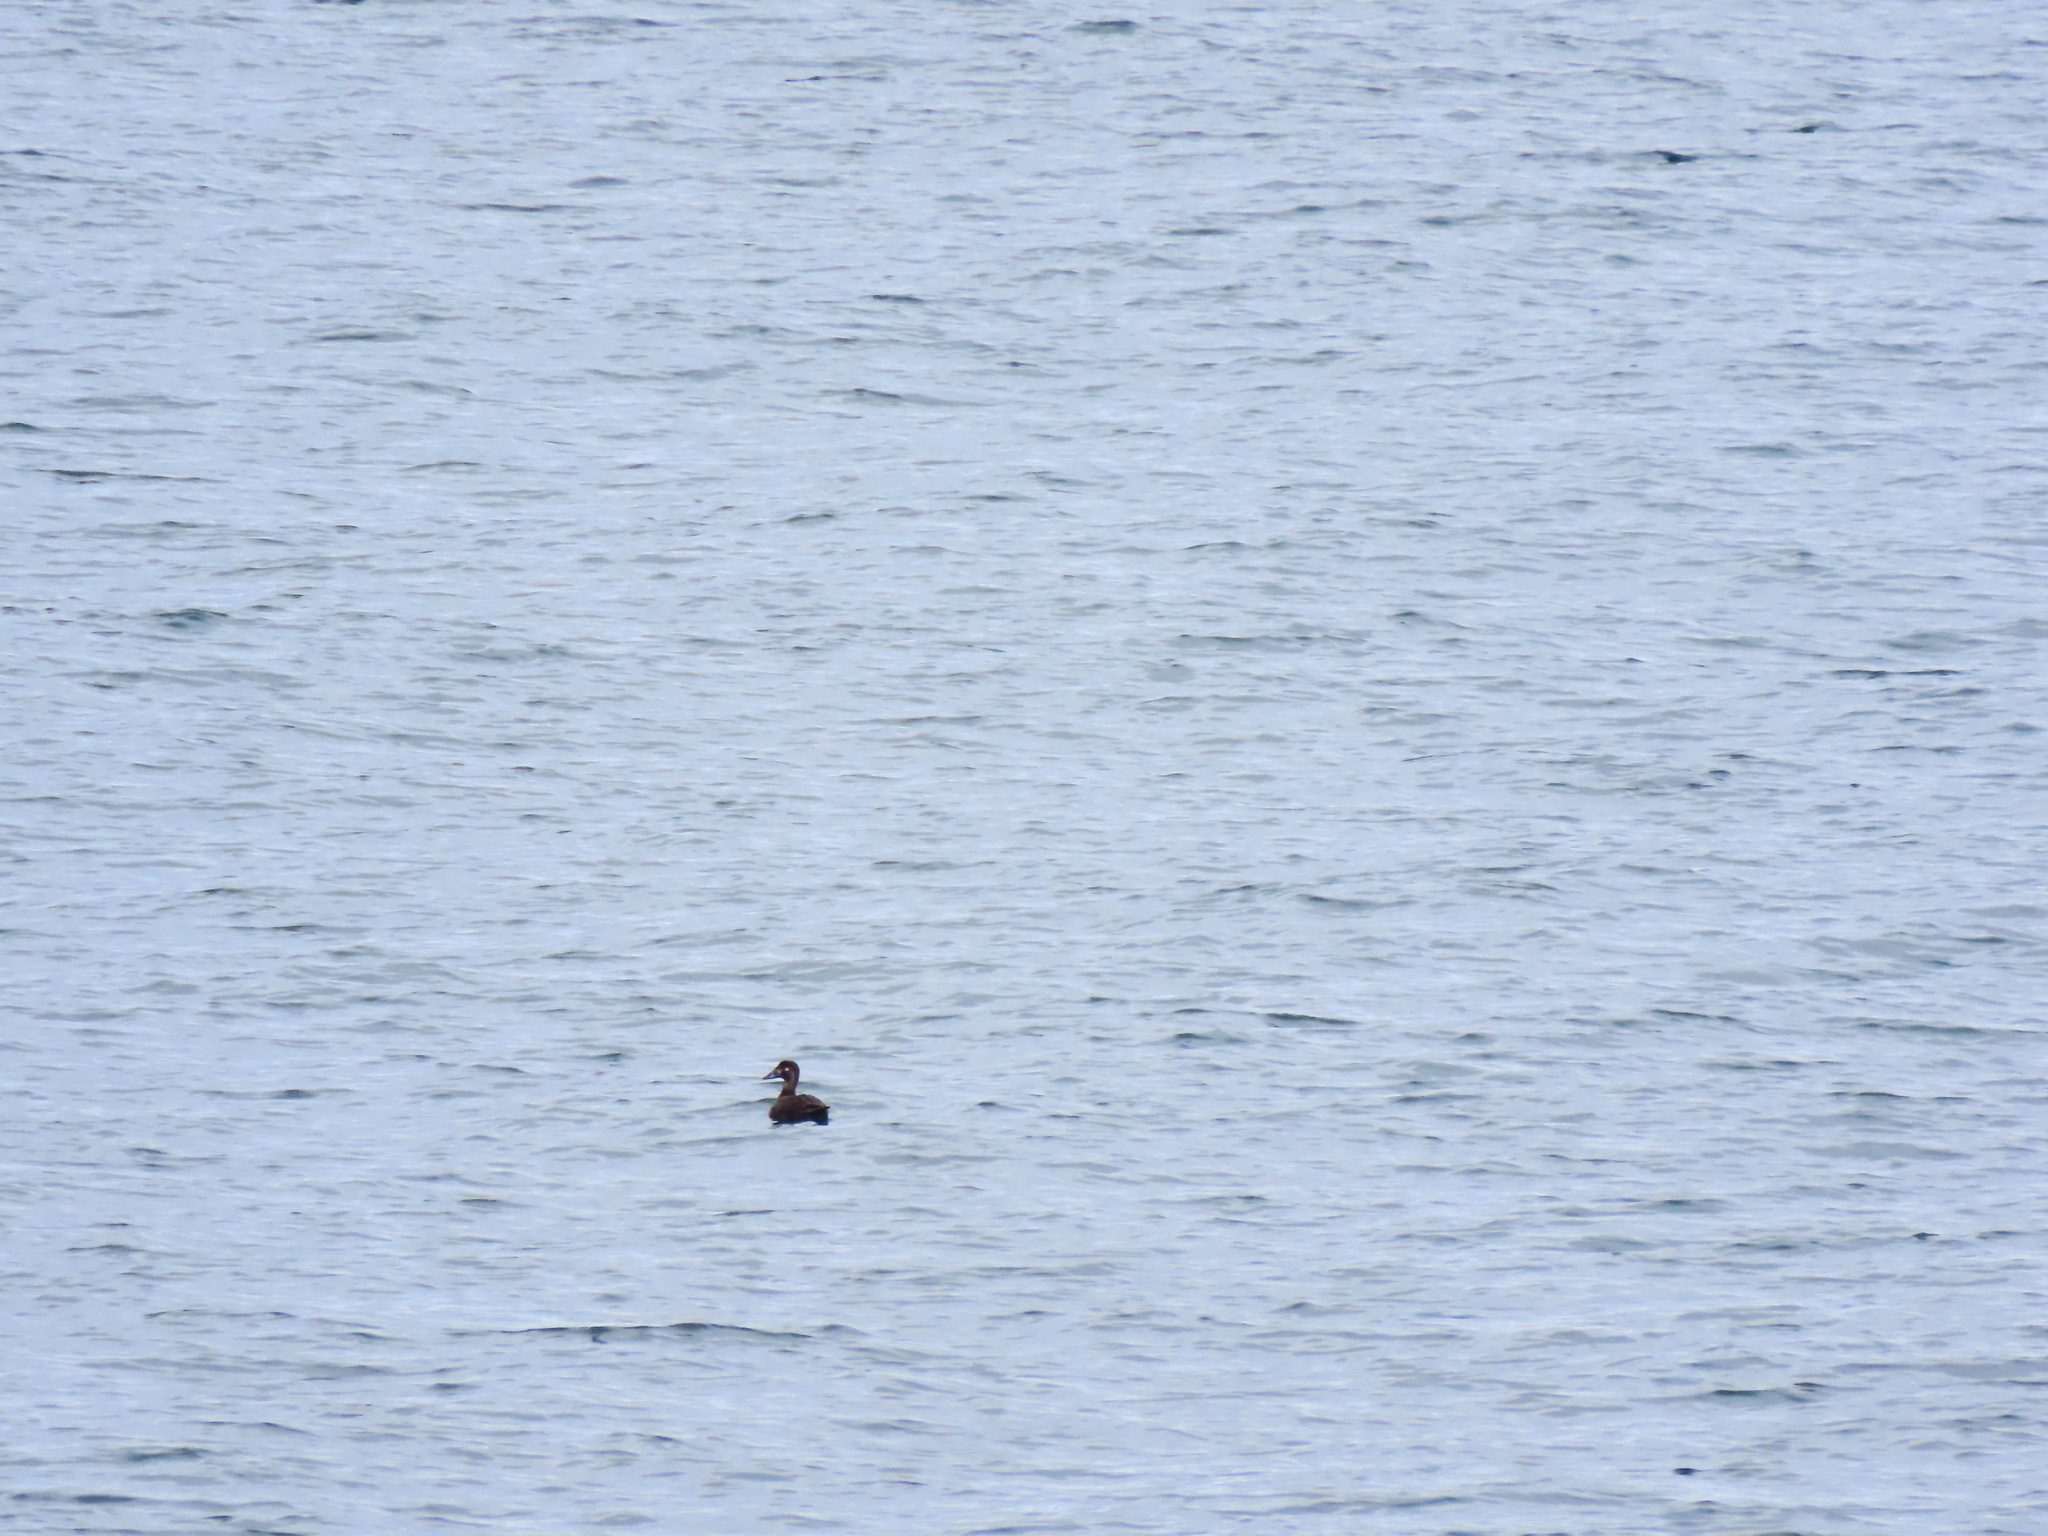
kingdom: Animalia
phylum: Chordata
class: Aves
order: Anseriformes
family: Anatidae
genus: Melanitta
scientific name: Melanitta perspicillata
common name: Surf scoter
